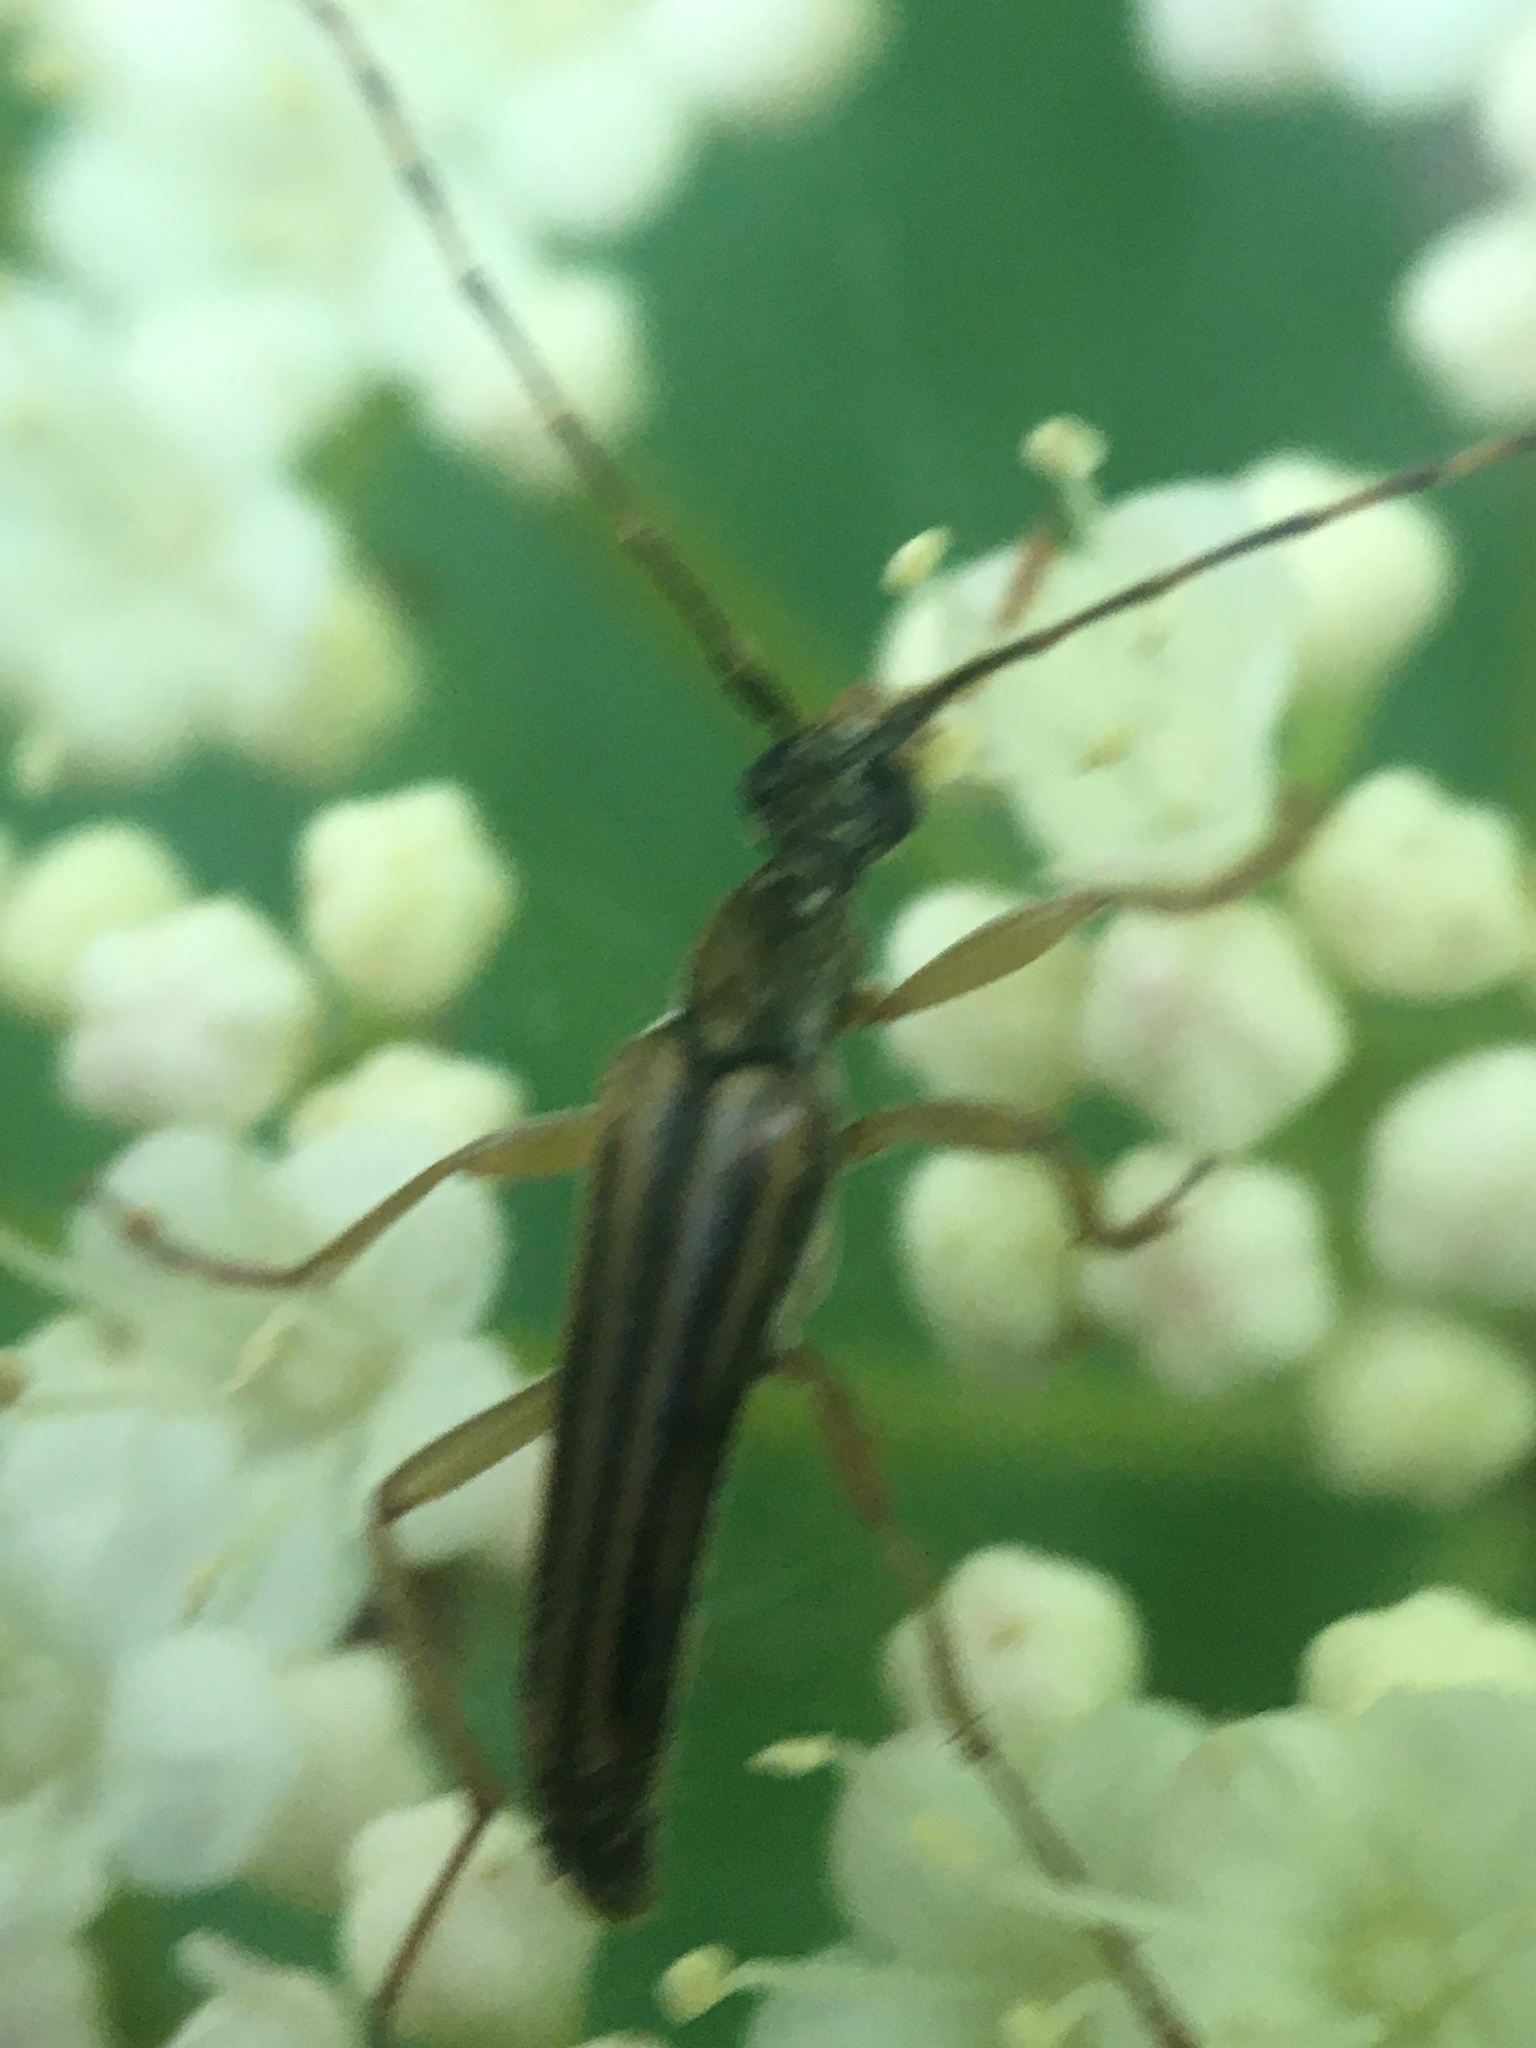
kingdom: Animalia
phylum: Arthropoda
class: Insecta
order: Coleoptera
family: Cerambycidae
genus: Analeptura
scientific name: Analeptura lineola
